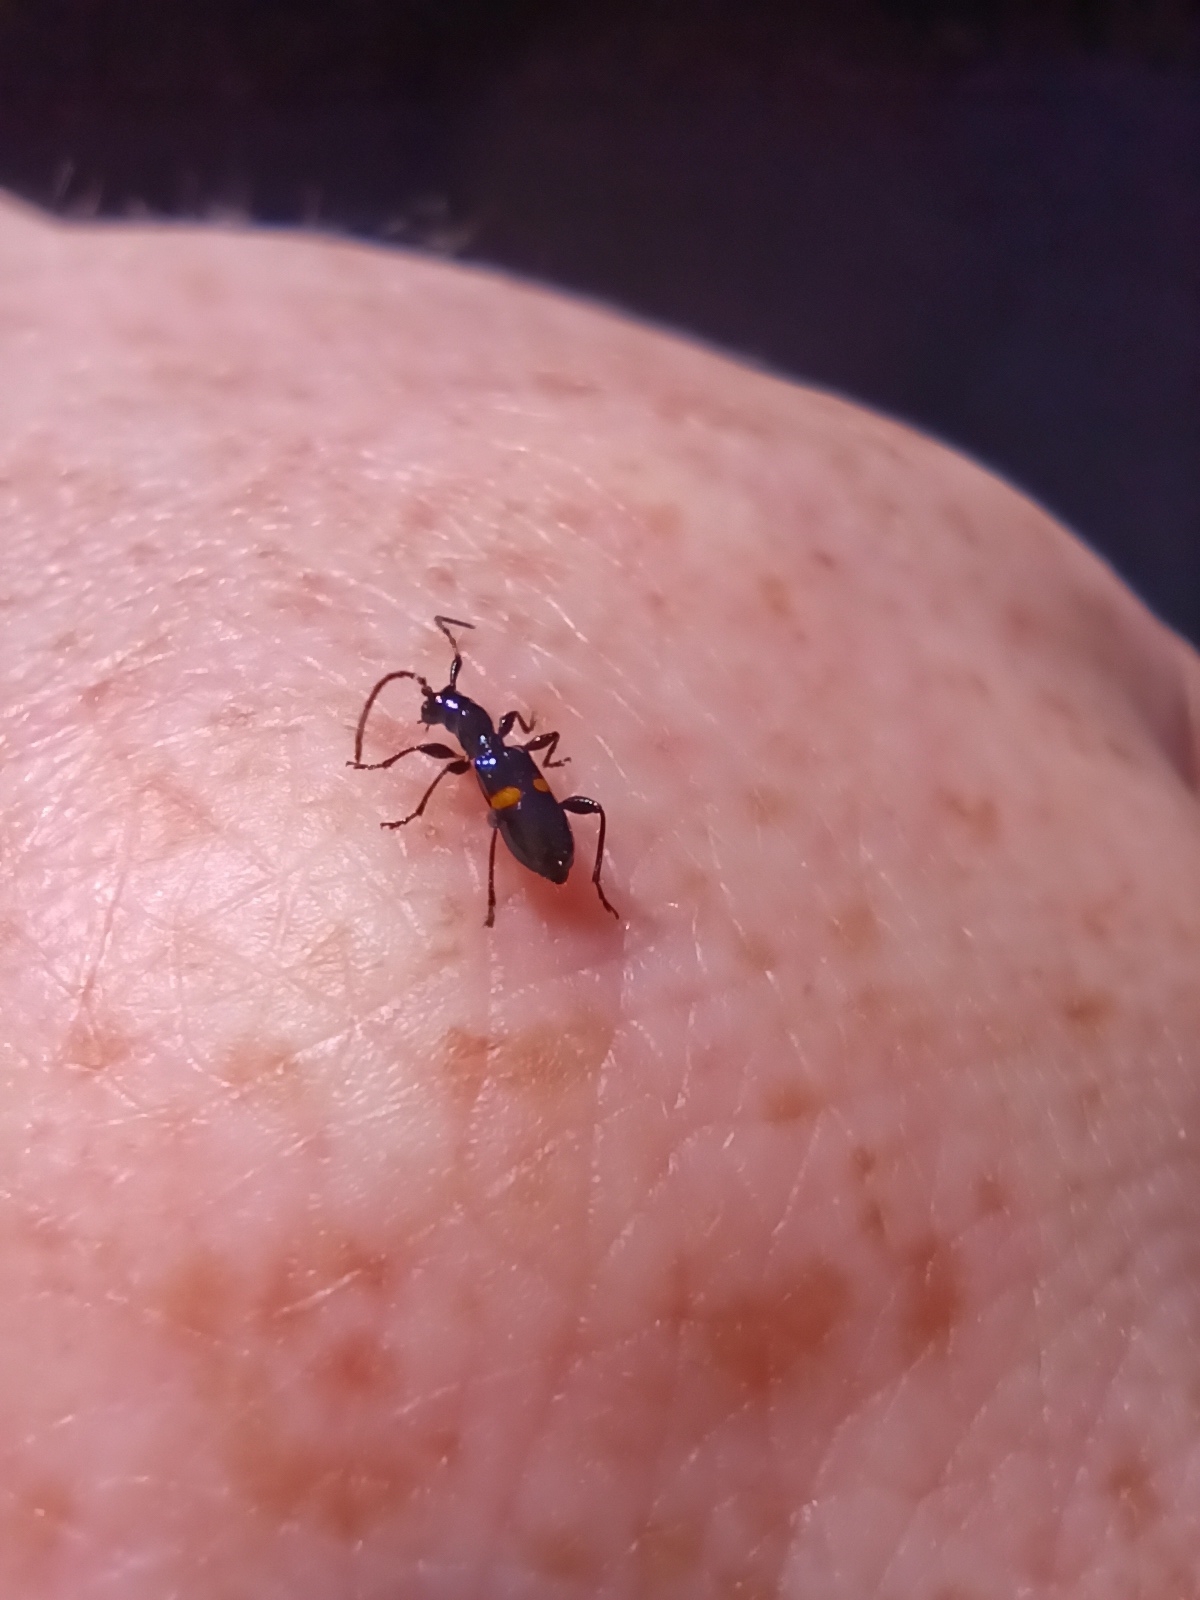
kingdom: Animalia
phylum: Arthropoda
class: Insecta
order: Coleoptera
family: Cerambycidae
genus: Zorion
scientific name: Zorion guttigerum
